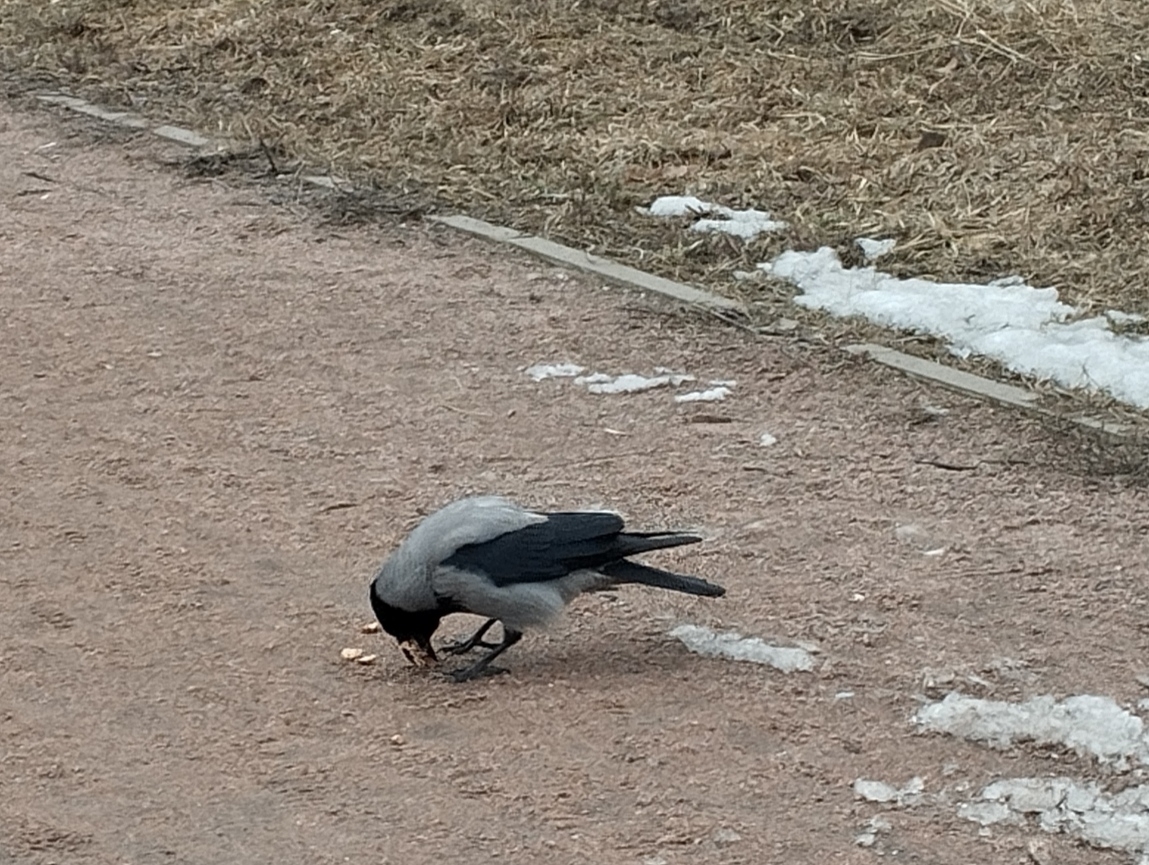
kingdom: Animalia
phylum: Chordata
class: Aves
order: Passeriformes
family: Corvidae
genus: Corvus
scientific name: Corvus cornix
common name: Hooded crow
